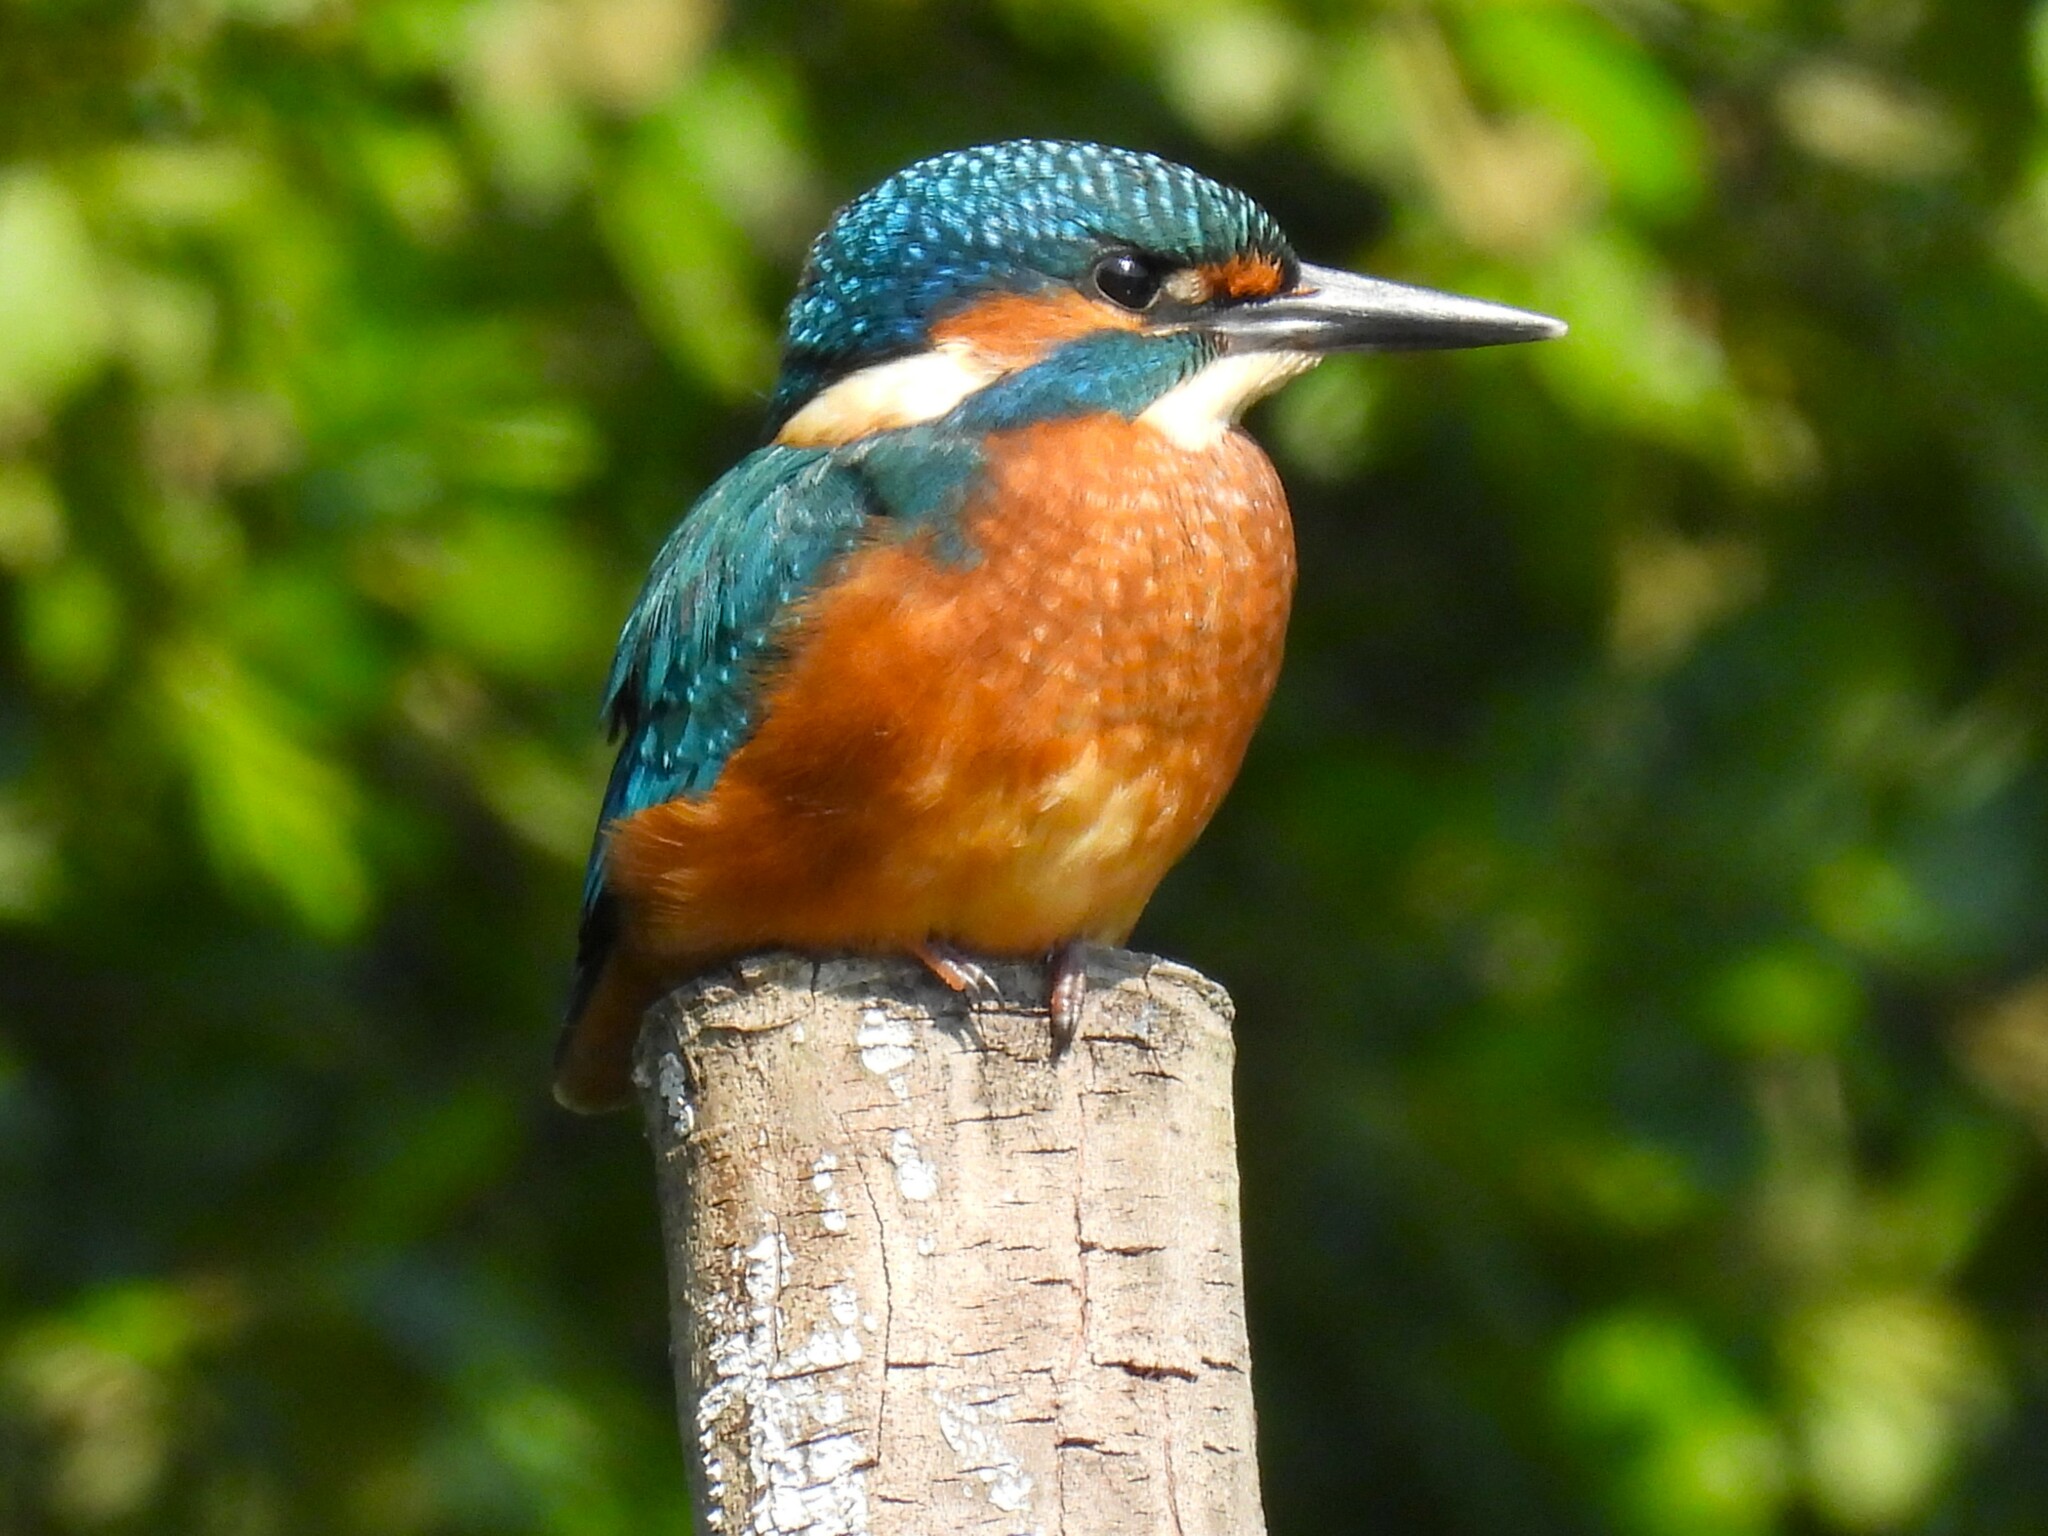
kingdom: Animalia
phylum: Chordata
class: Aves
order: Coraciiformes
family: Alcedinidae
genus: Alcedo
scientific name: Alcedo atthis
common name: Common kingfisher
